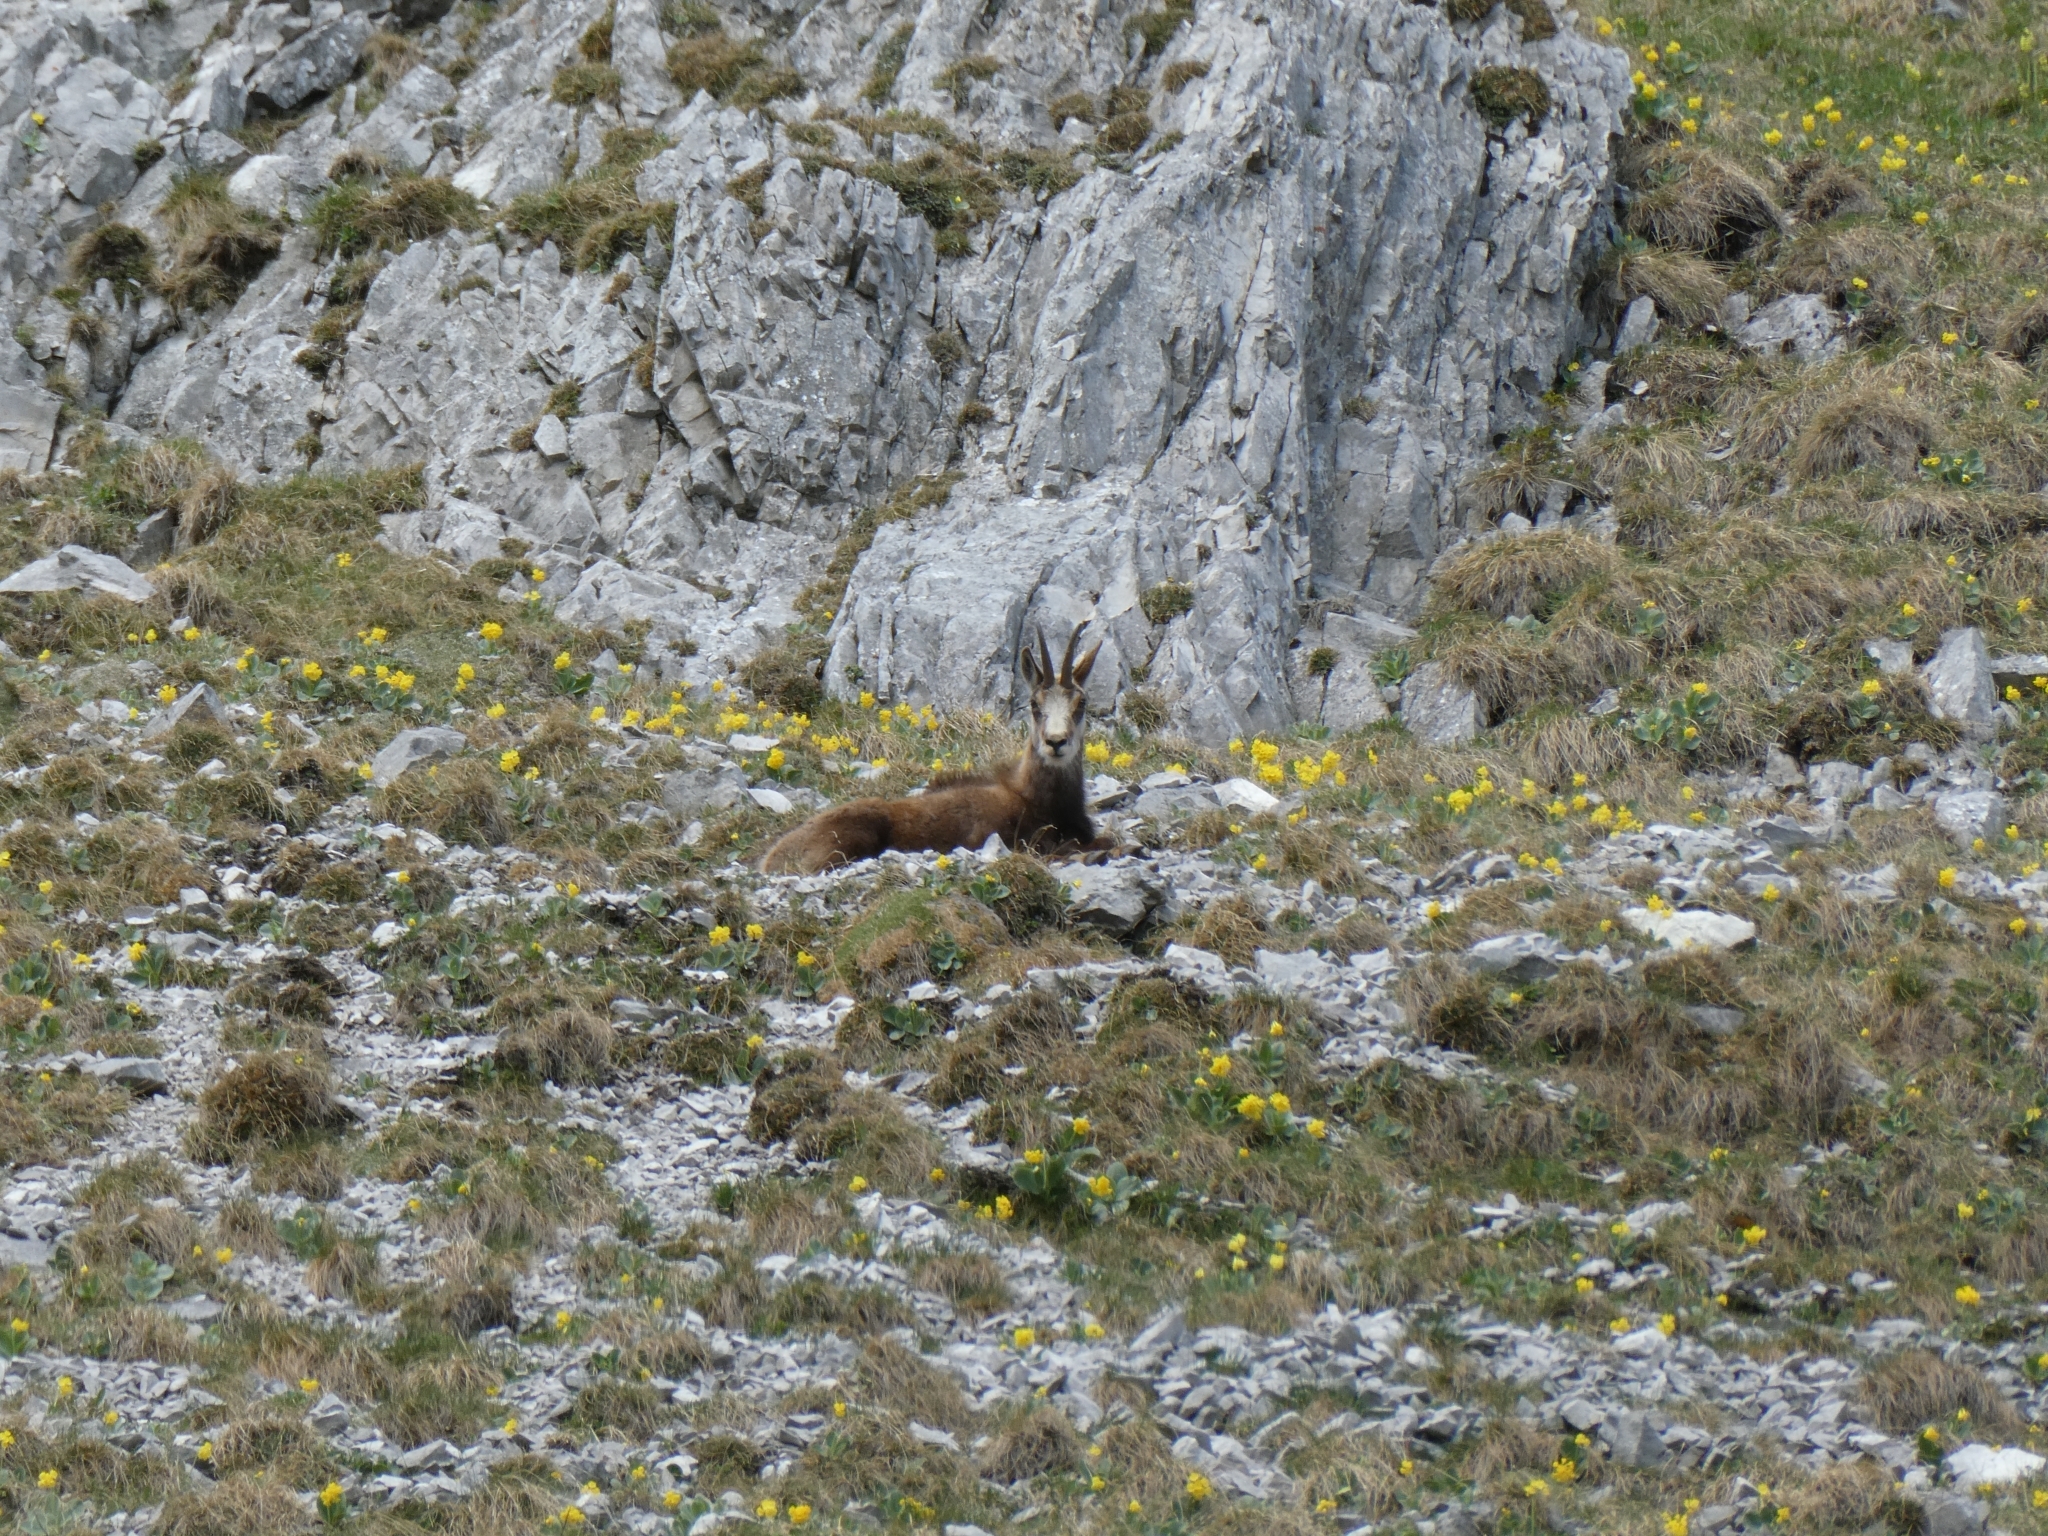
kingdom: Animalia
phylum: Chordata
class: Mammalia
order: Artiodactyla
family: Bovidae
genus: Rupicapra
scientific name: Rupicapra rupicapra
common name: Chamois
